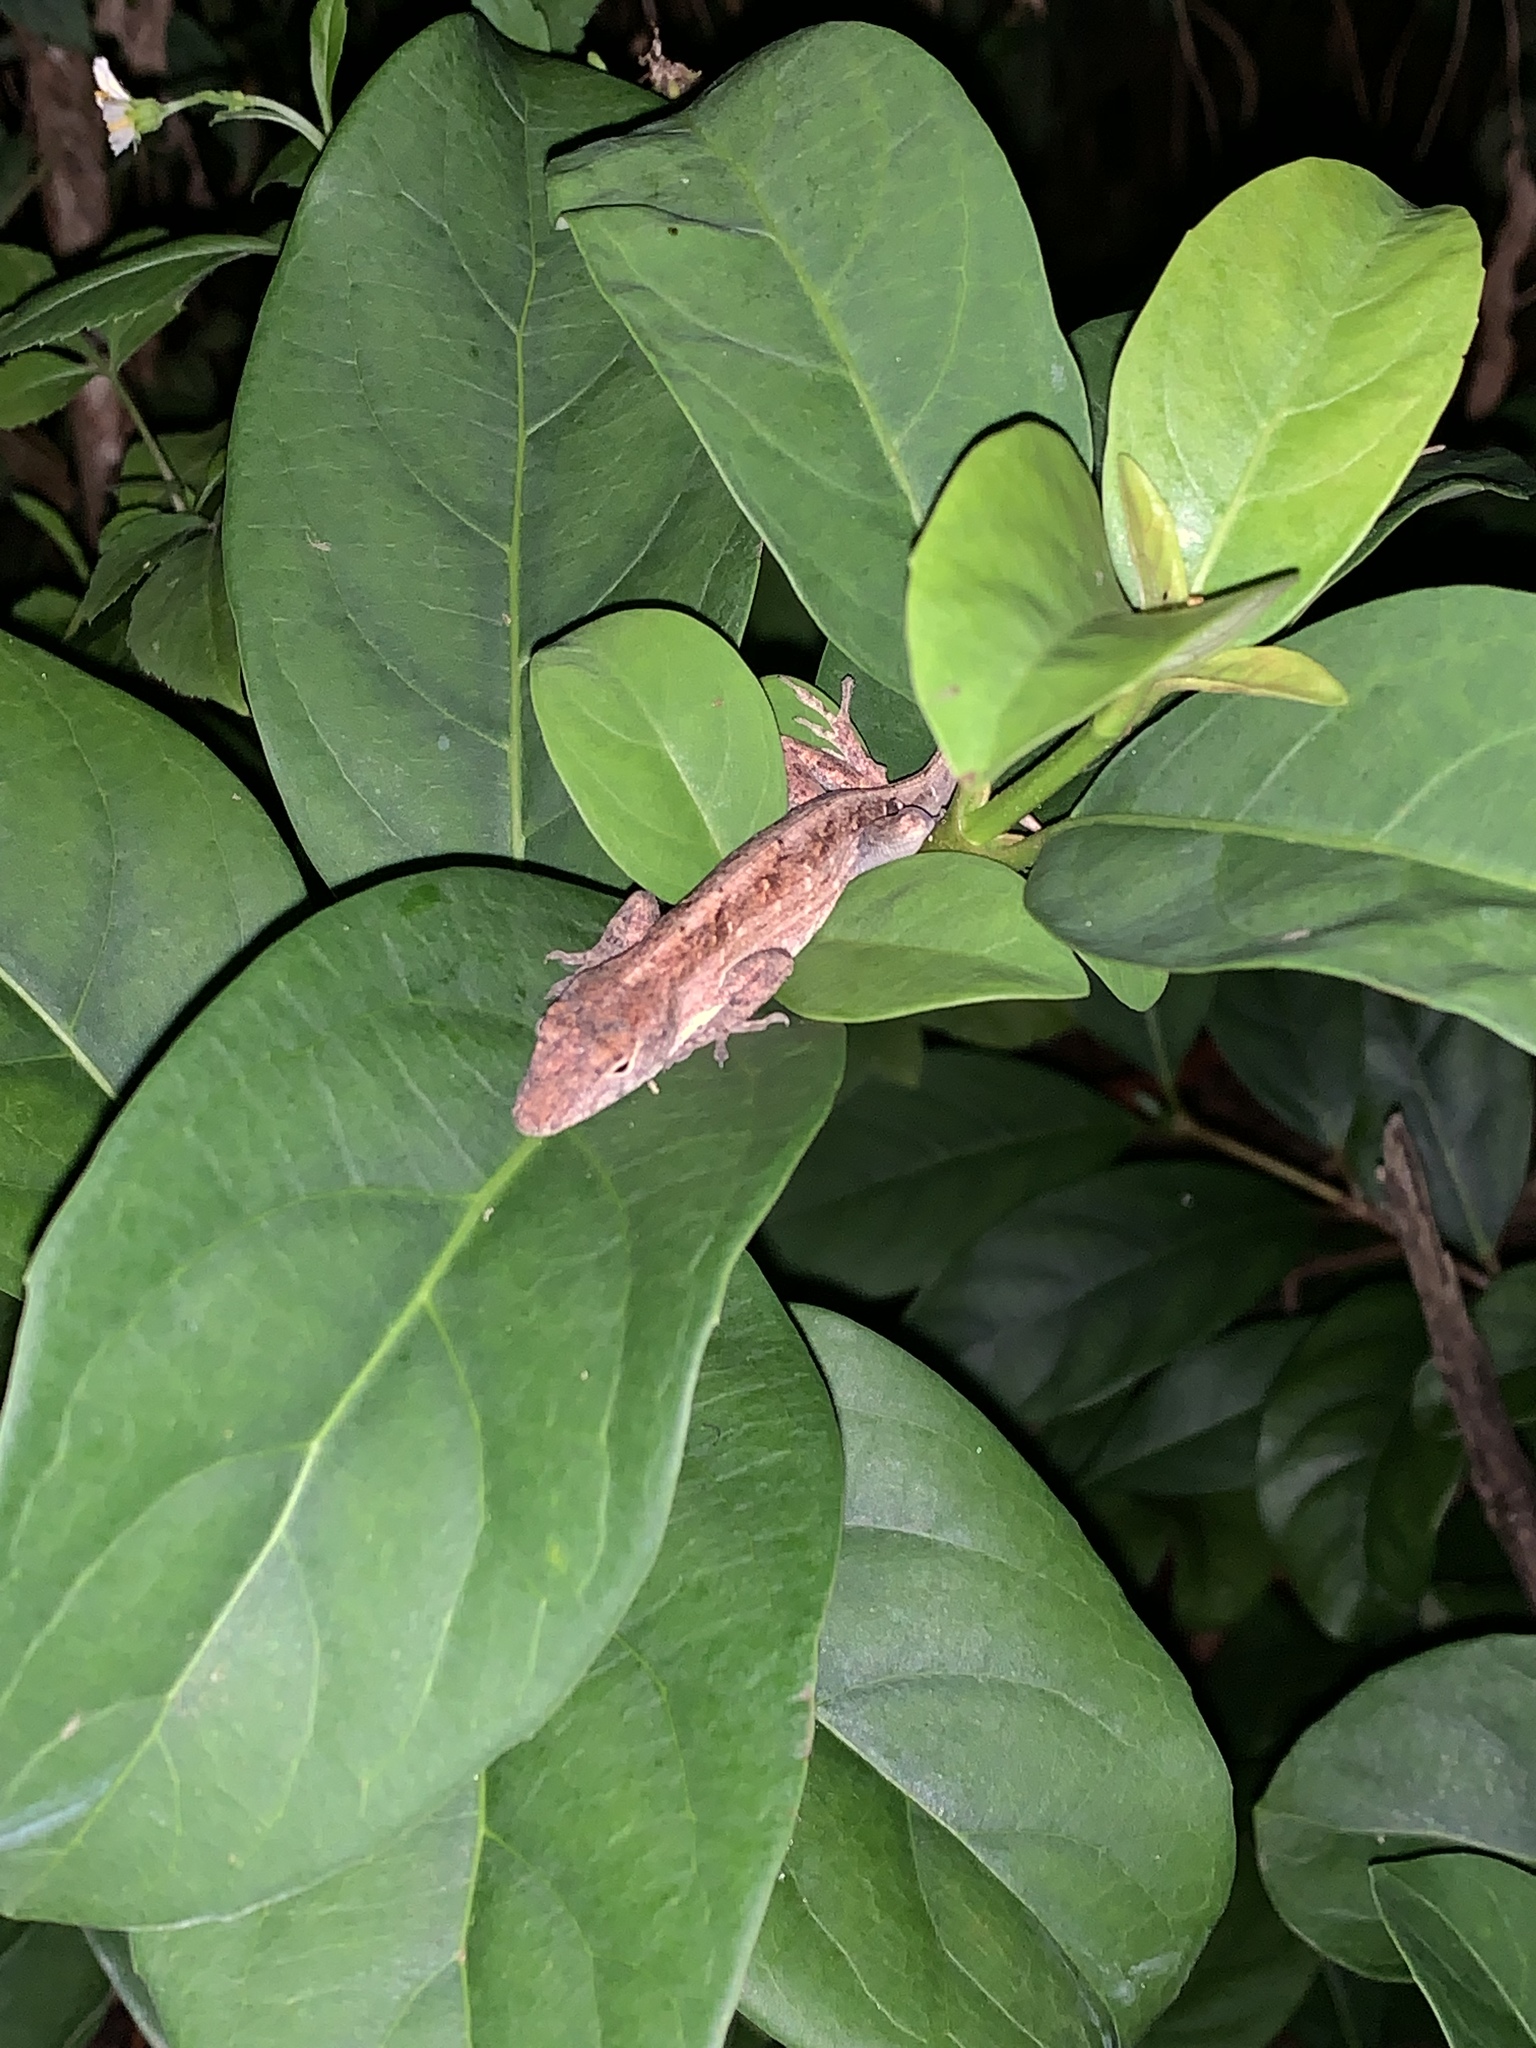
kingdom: Animalia
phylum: Chordata
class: Squamata
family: Dactyloidae
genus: Anolis
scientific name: Anolis sagrei
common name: Brown anole
